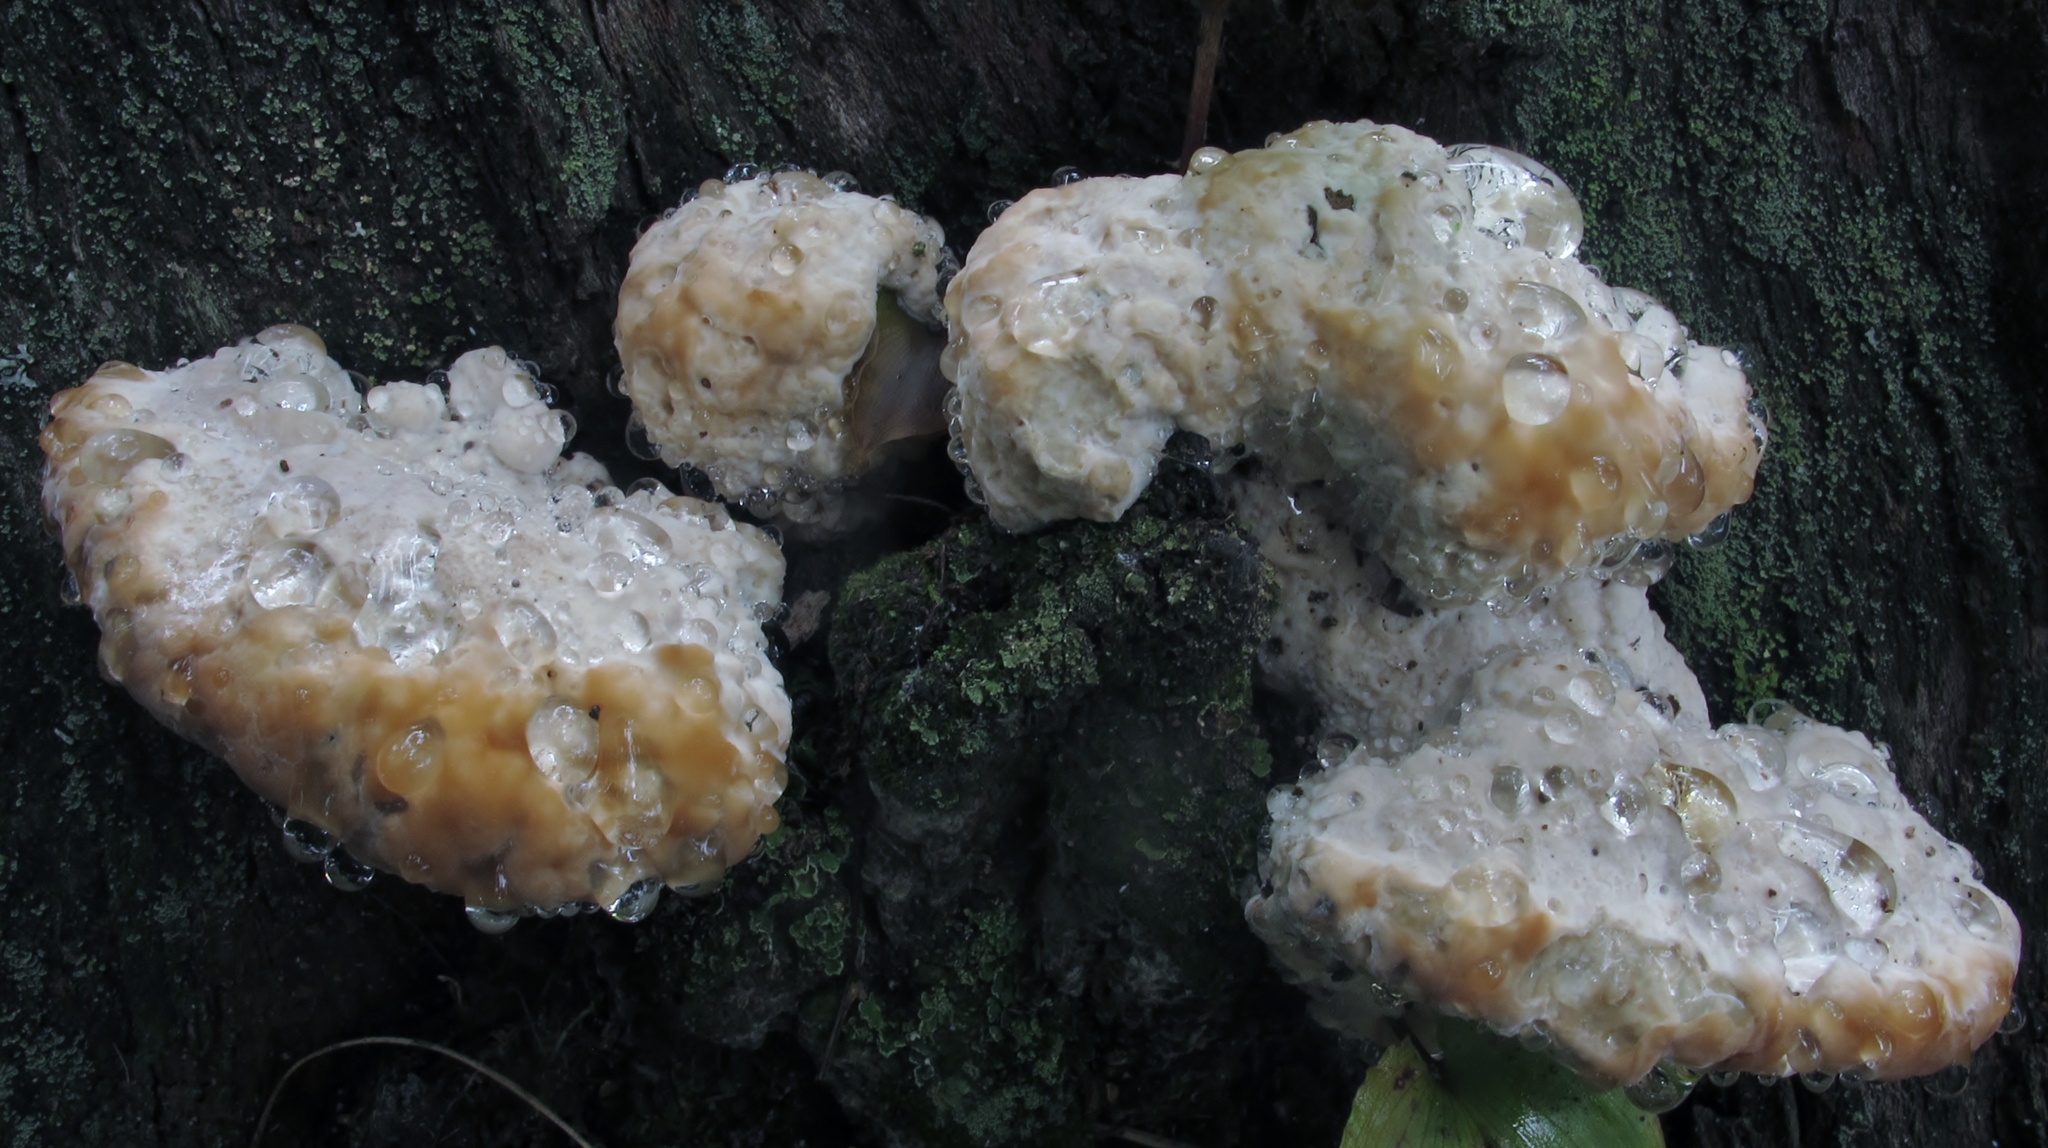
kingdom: Fungi
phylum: Basidiomycota
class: Agaricomycetes
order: Polyporales
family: Fomitopsidaceae
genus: Niveoporofomes
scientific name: Niveoporofomes spraguei
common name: Green cheese polypore
